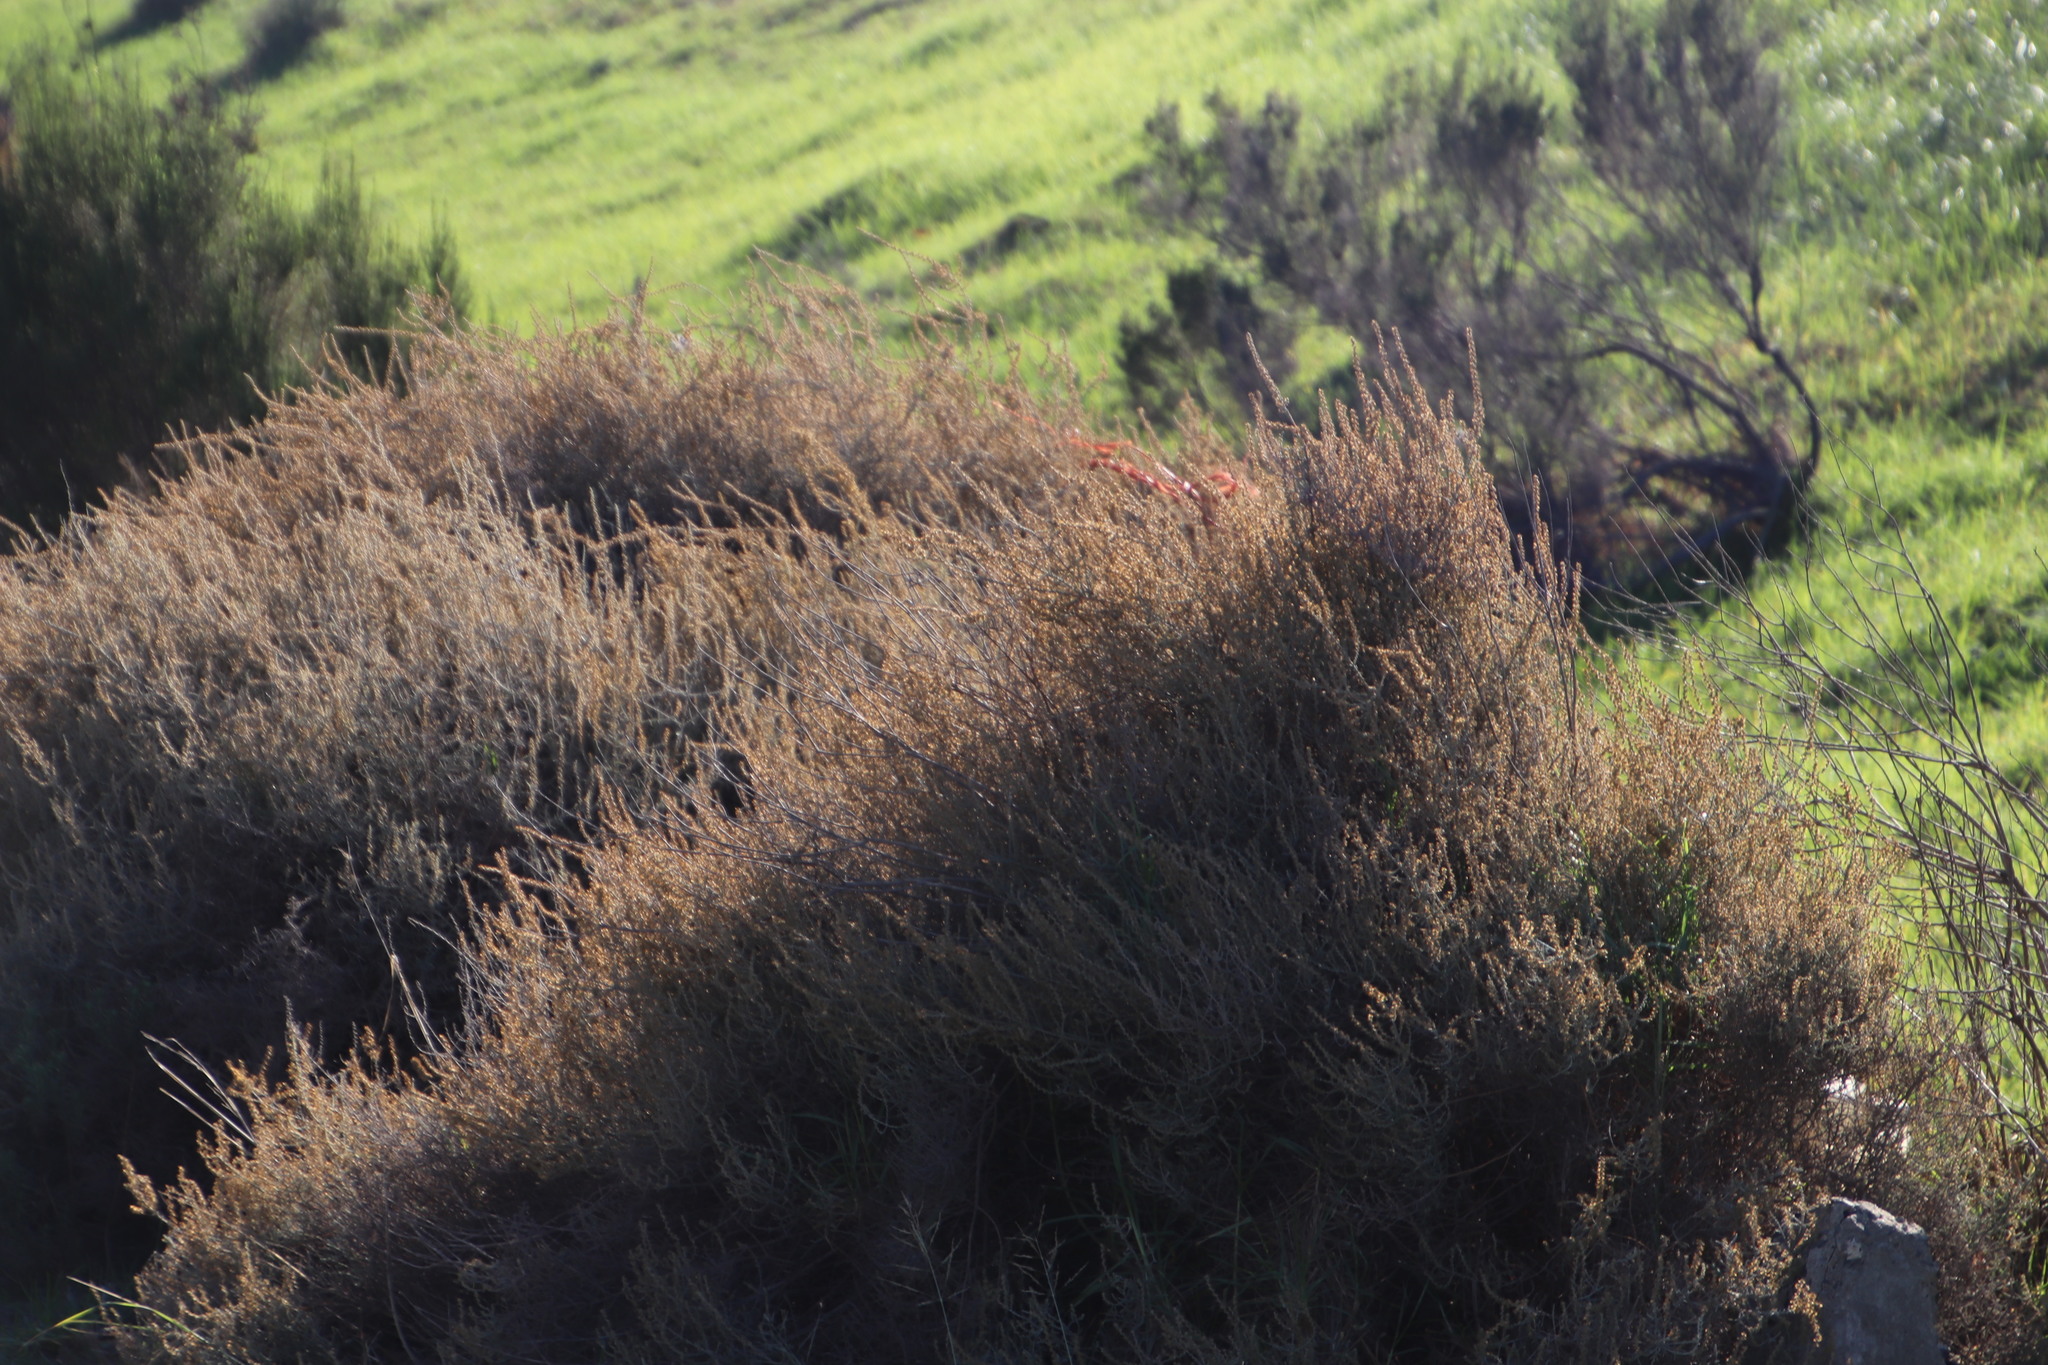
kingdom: Plantae
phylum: Tracheophyta
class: Magnoliopsida
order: Asterales
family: Asteraceae
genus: Seriphium
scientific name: Seriphium plumosum
